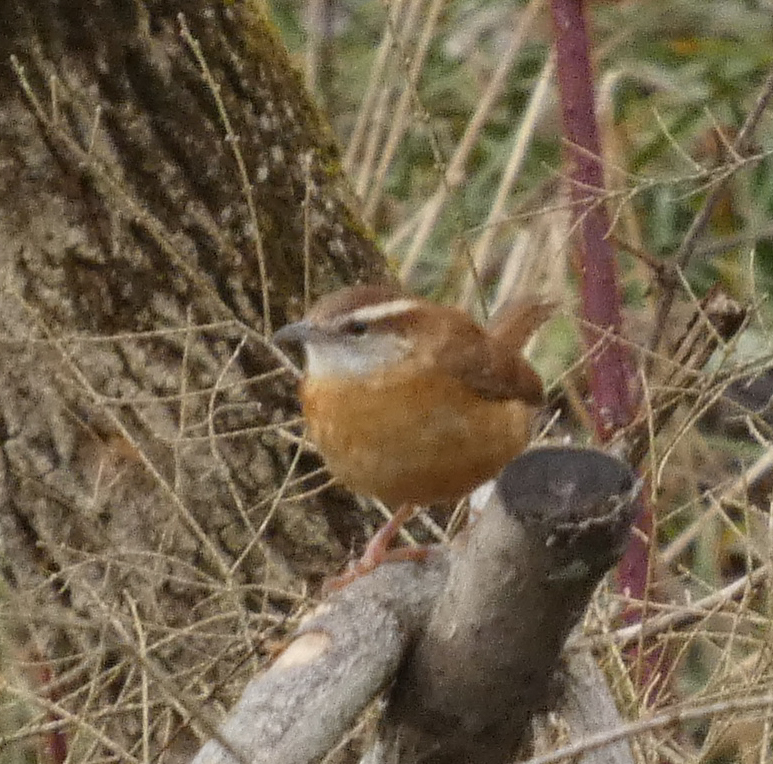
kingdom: Animalia
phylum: Chordata
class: Aves
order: Passeriformes
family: Troglodytidae
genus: Thryothorus
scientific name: Thryothorus ludovicianus
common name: Carolina wren
